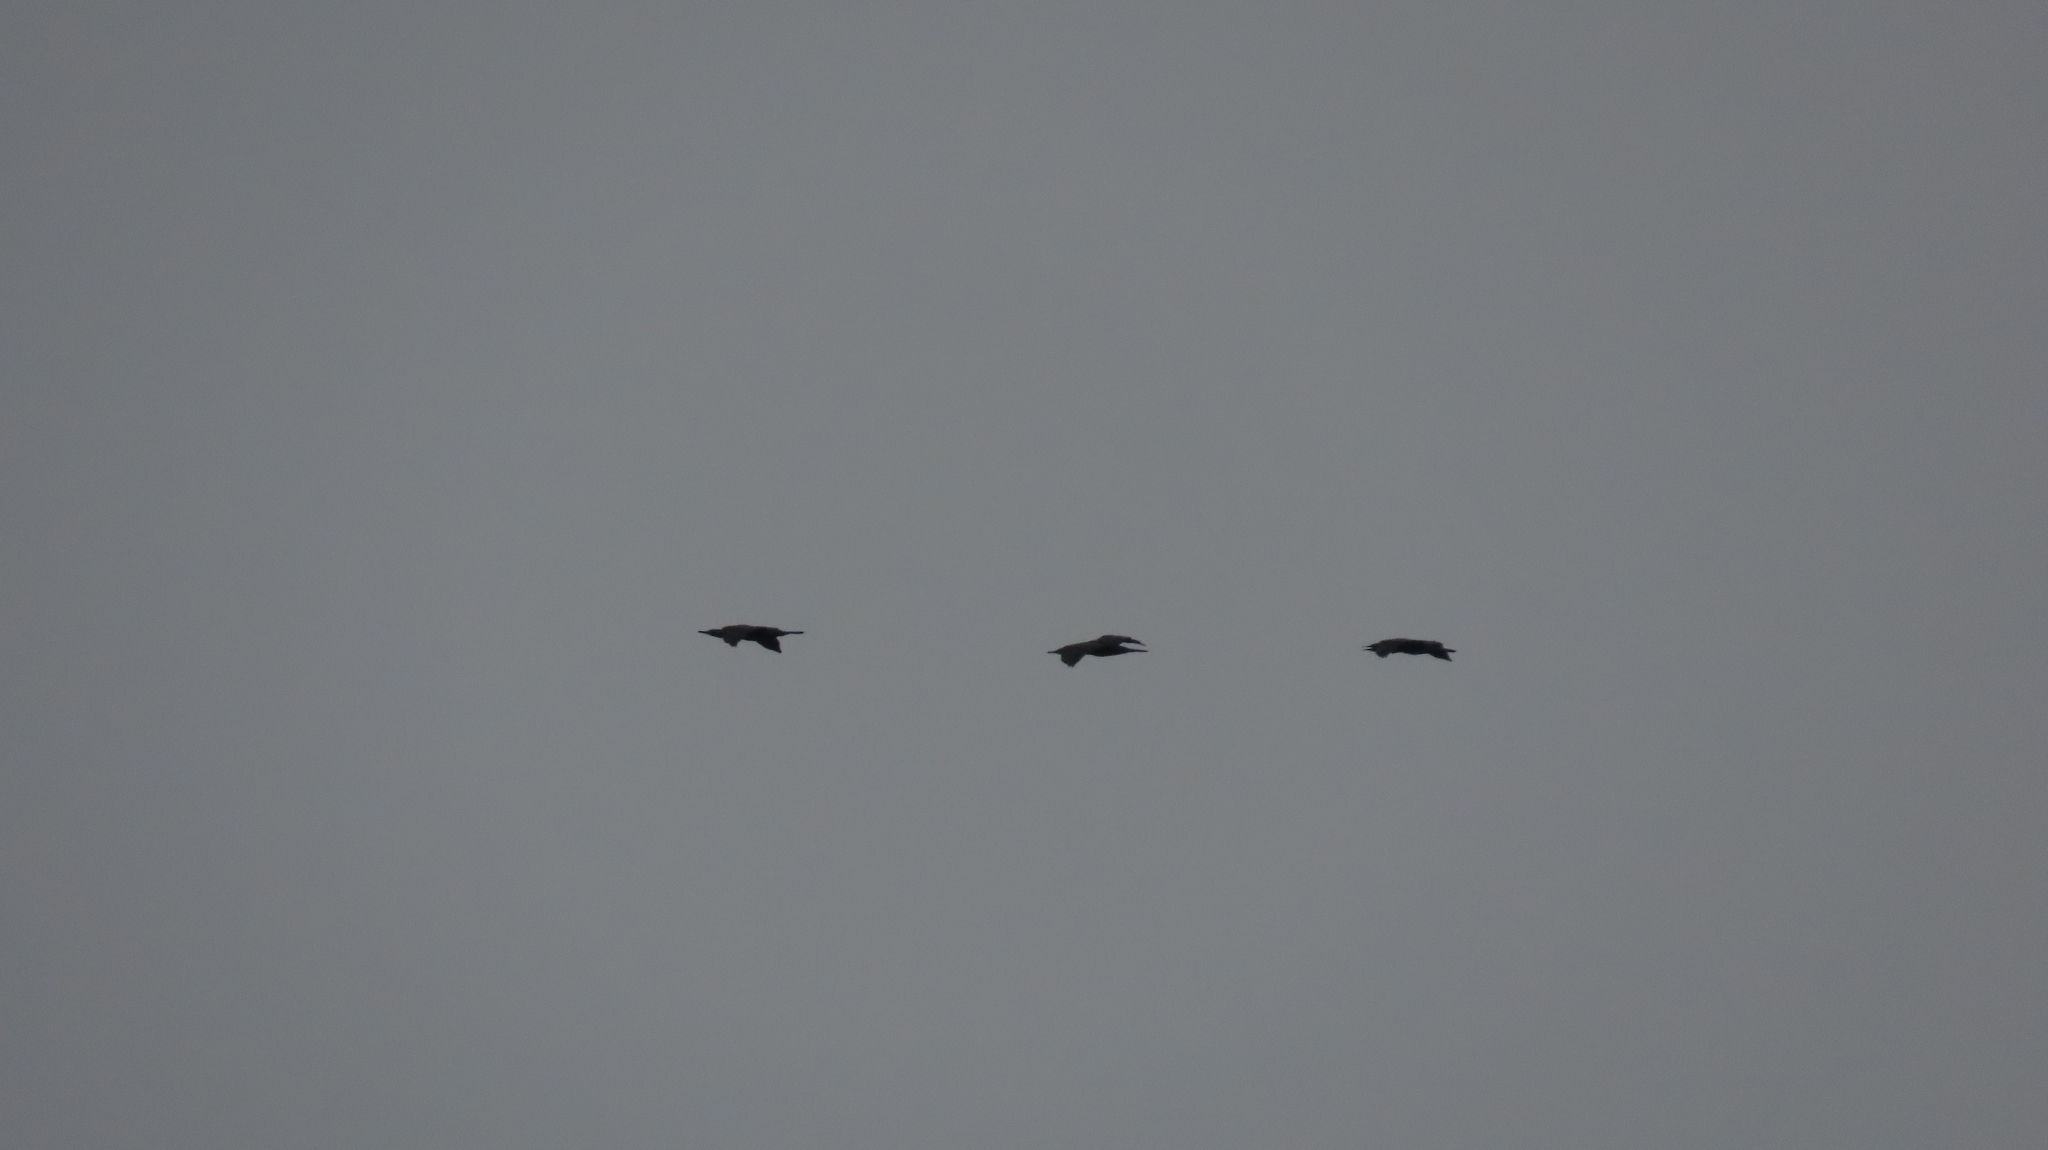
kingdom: Animalia
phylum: Chordata
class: Aves
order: Suliformes
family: Phalacrocoracidae
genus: Phalacrocorax
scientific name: Phalacrocorax fuscicollis
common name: Indian cormorant
